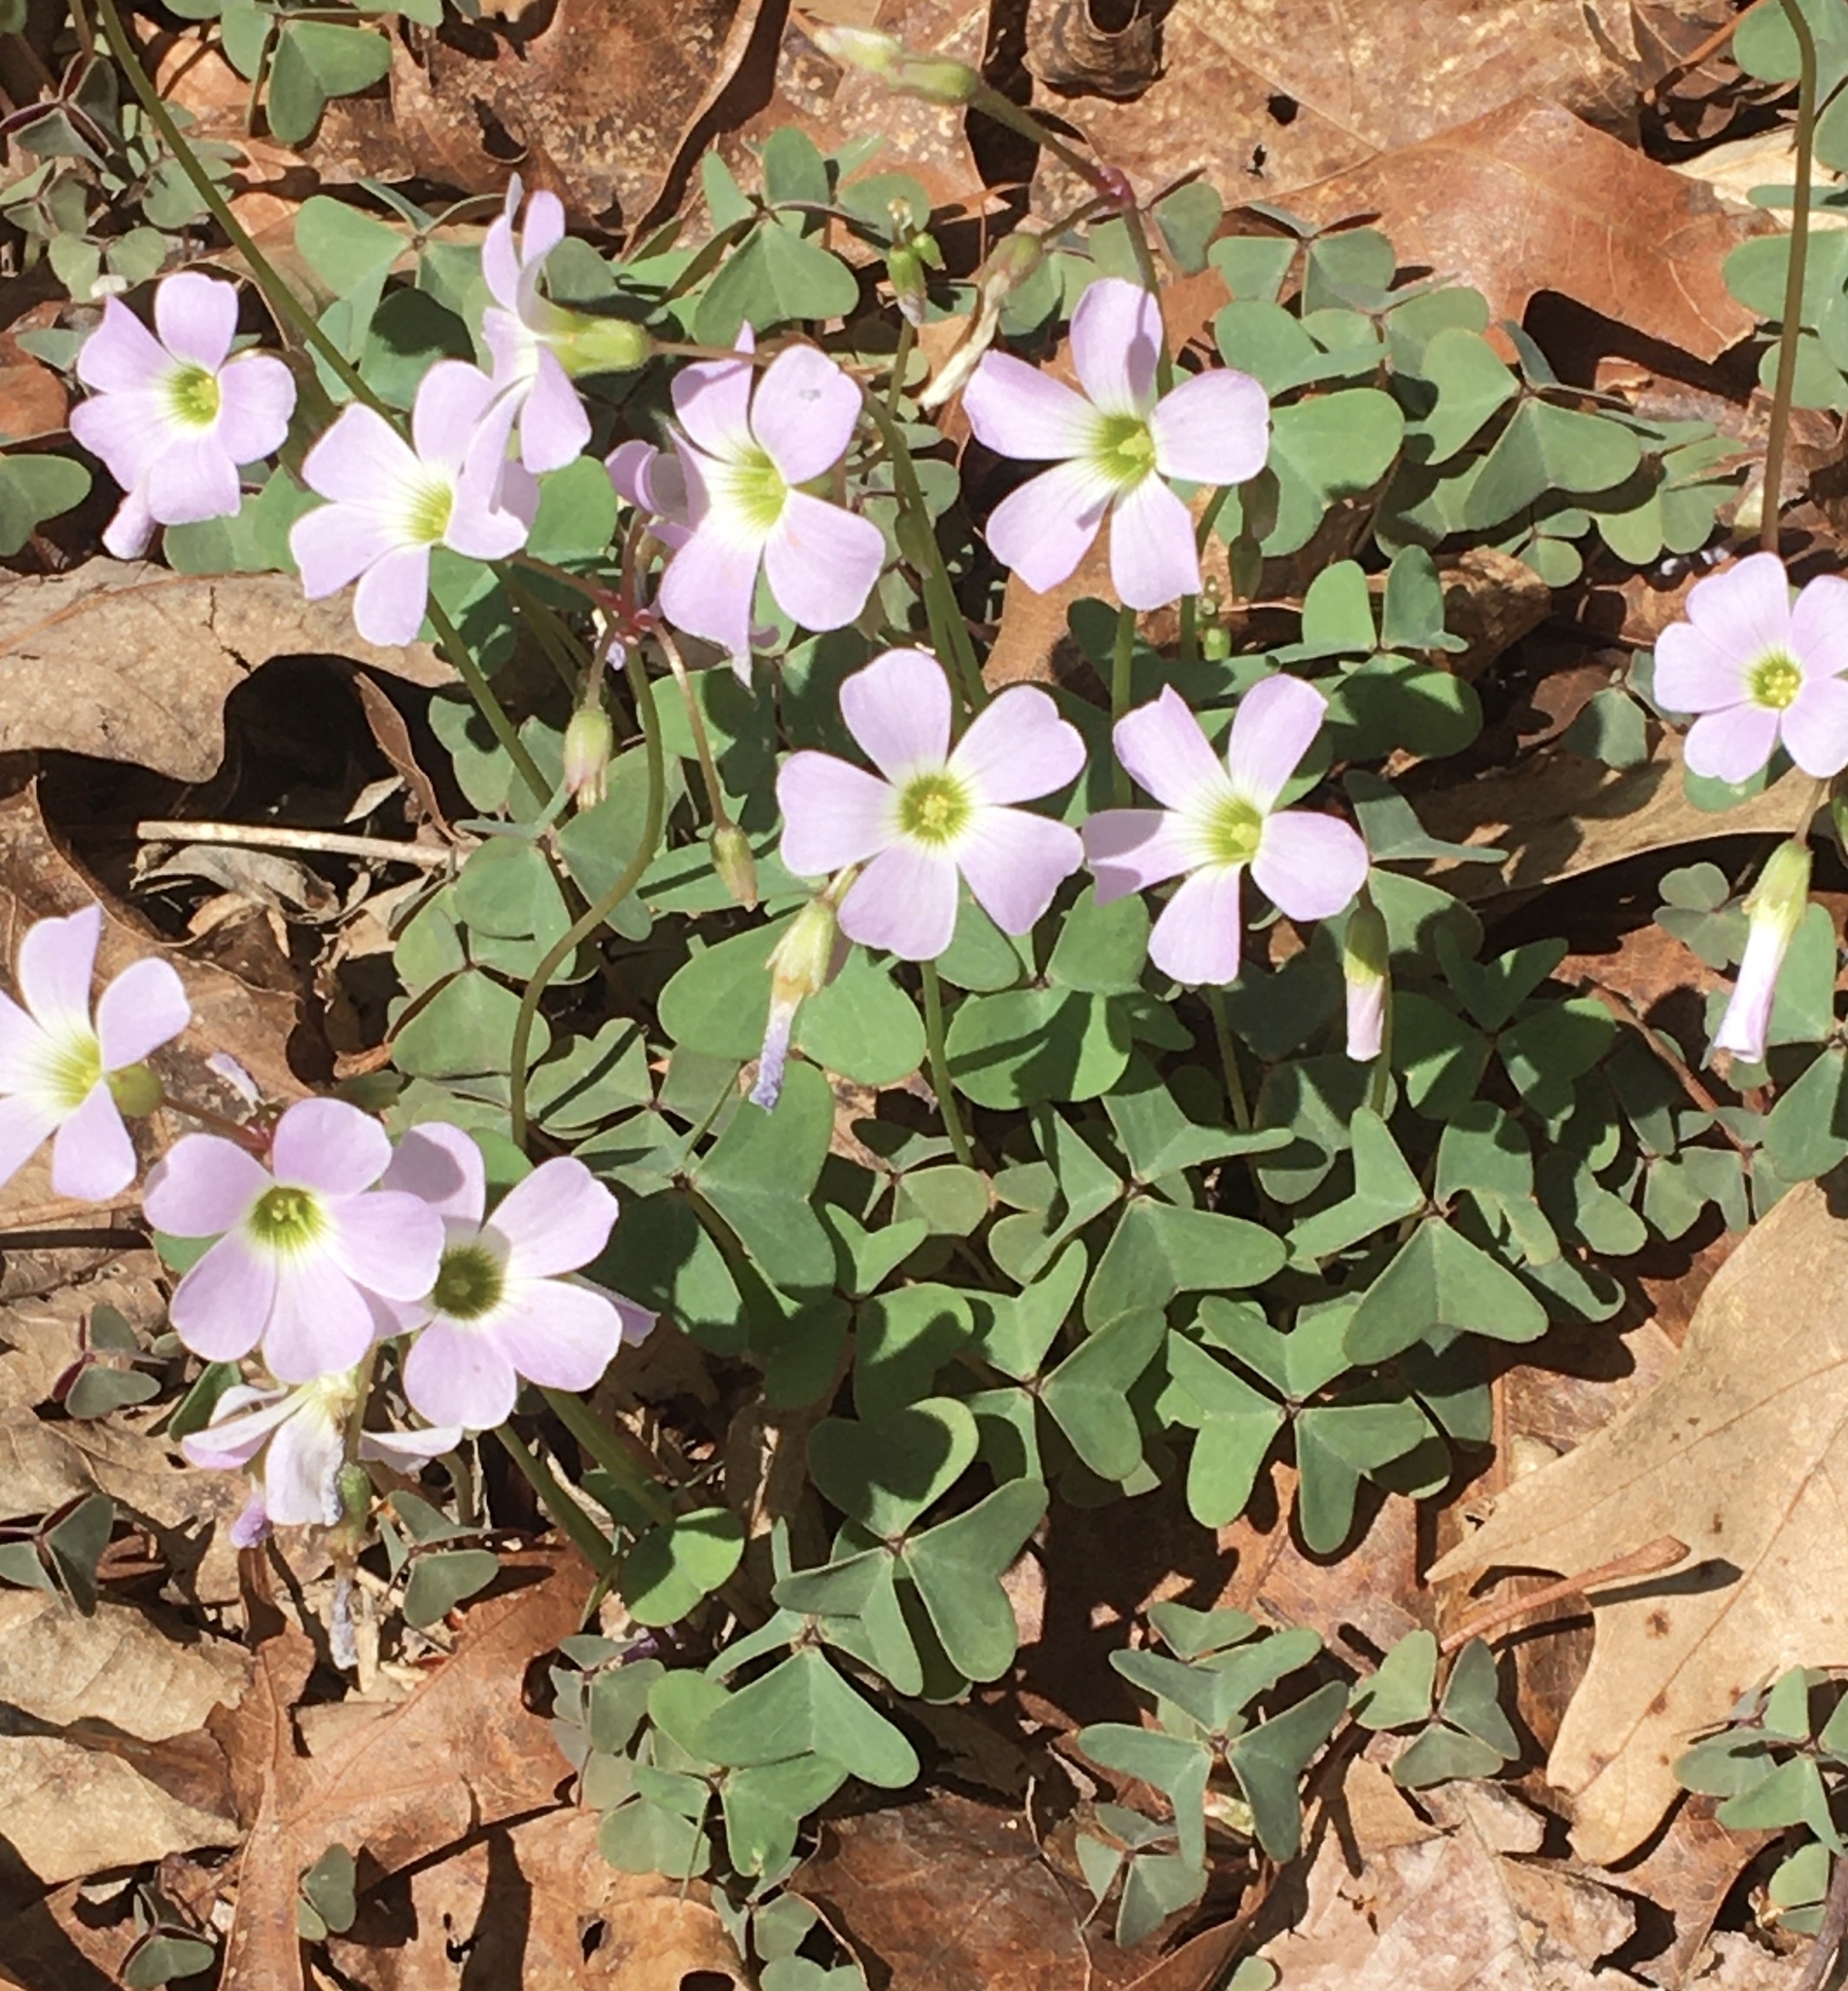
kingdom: Plantae
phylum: Tracheophyta
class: Magnoliopsida
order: Oxalidales
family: Oxalidaceae
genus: Oxalis
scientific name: Oxalis violacea
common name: Violet wood-sorrel
